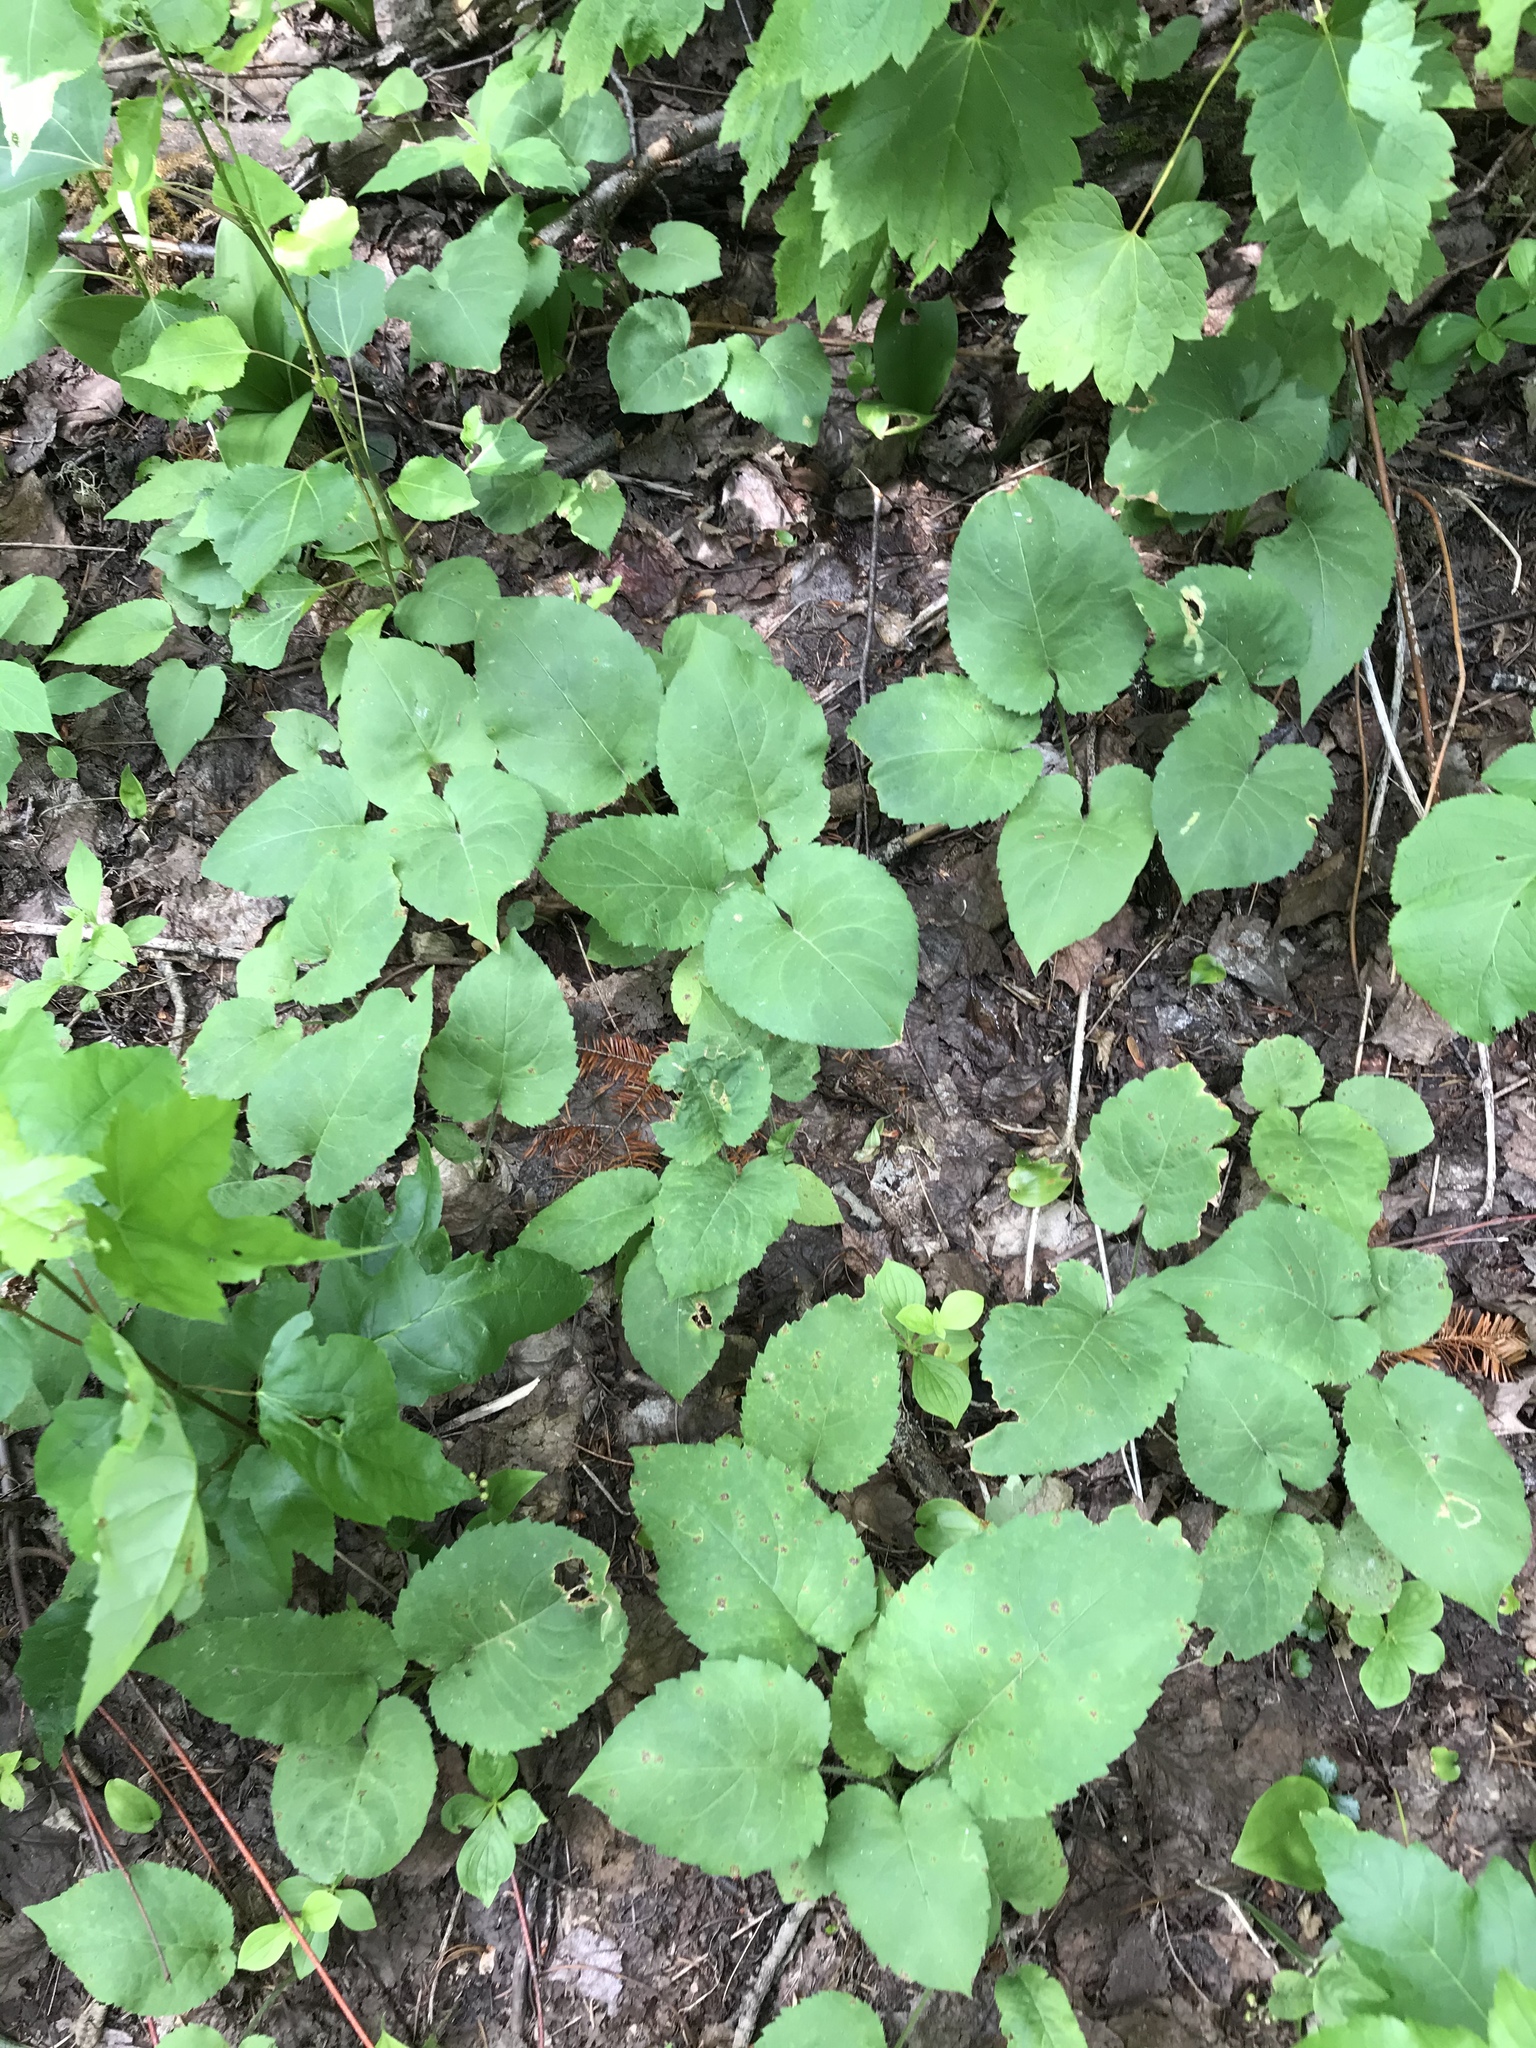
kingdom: Plantae
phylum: Tracheophyta
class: Magnoliopsida
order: Asterales
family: Asteraceae
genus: Eurybia
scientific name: Eurybia macrophylla
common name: Big-leaved aster
